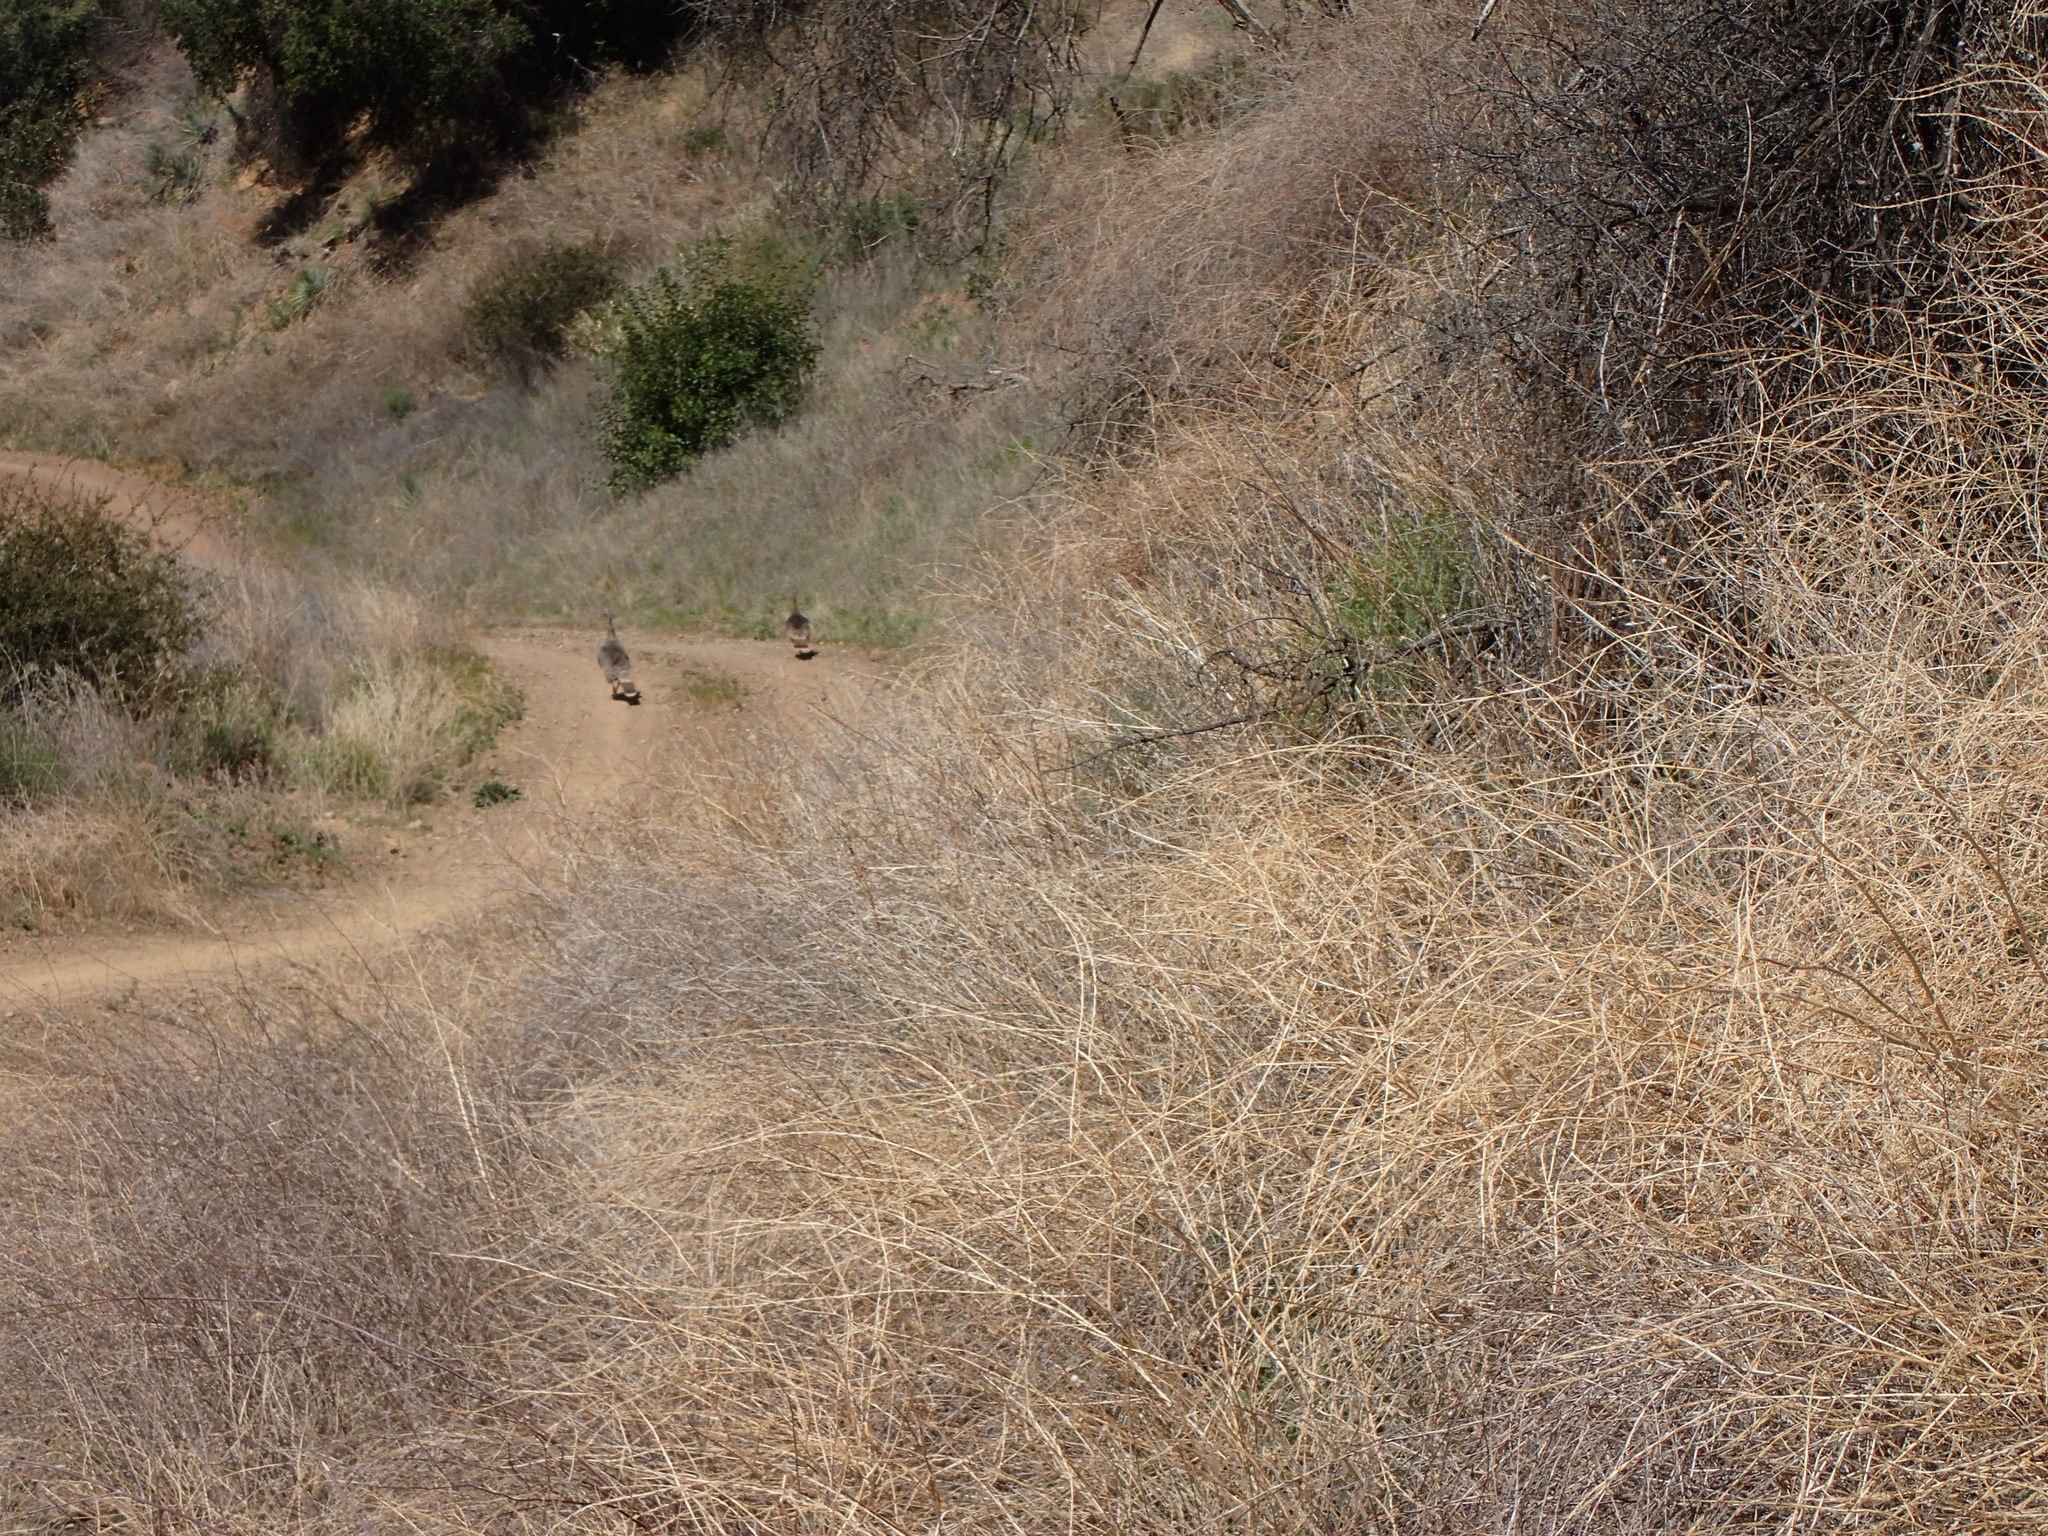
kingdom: Animalia
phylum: Chordata
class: Aves
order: Galliformes
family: Phasianidae
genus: Meleagris
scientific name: Meleagris gallopavo
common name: Wild turkey
